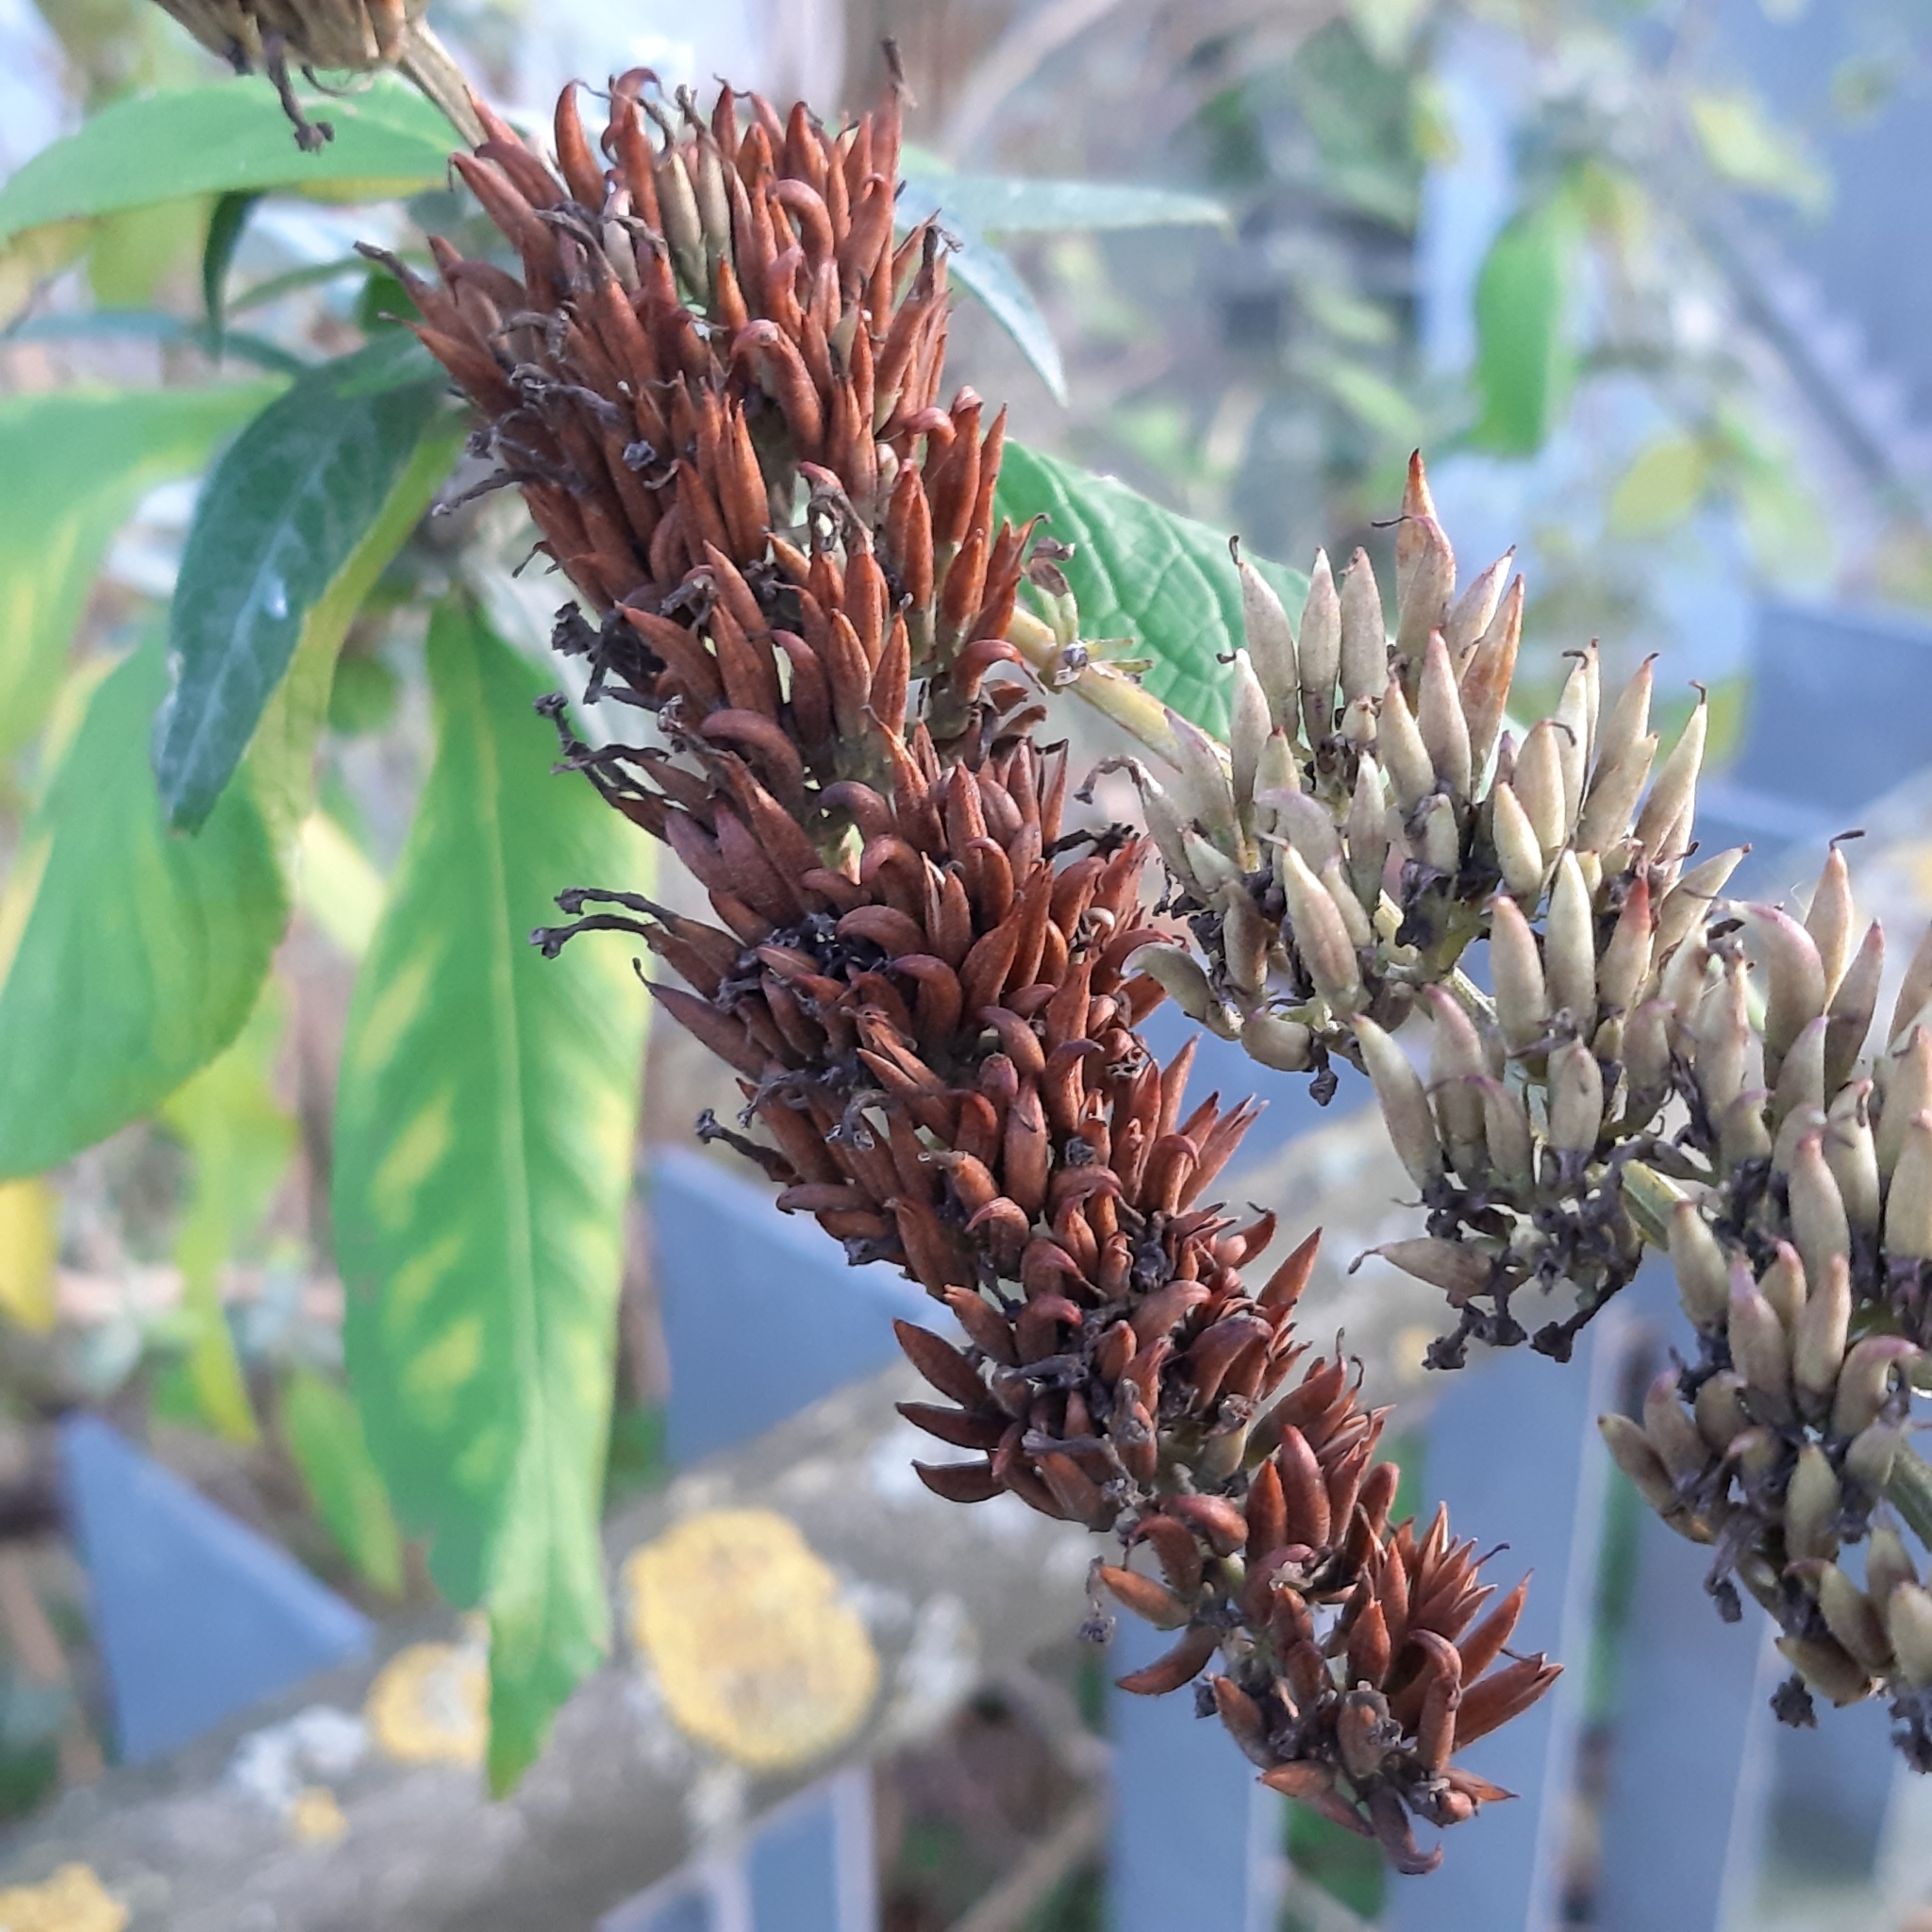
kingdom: Plantae
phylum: Tracheophyta
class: Magnoliopsida
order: Lamiales
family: Scrophulariaceae
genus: Buddleja
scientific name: Buddleja davidii
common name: Butterfly-bush
